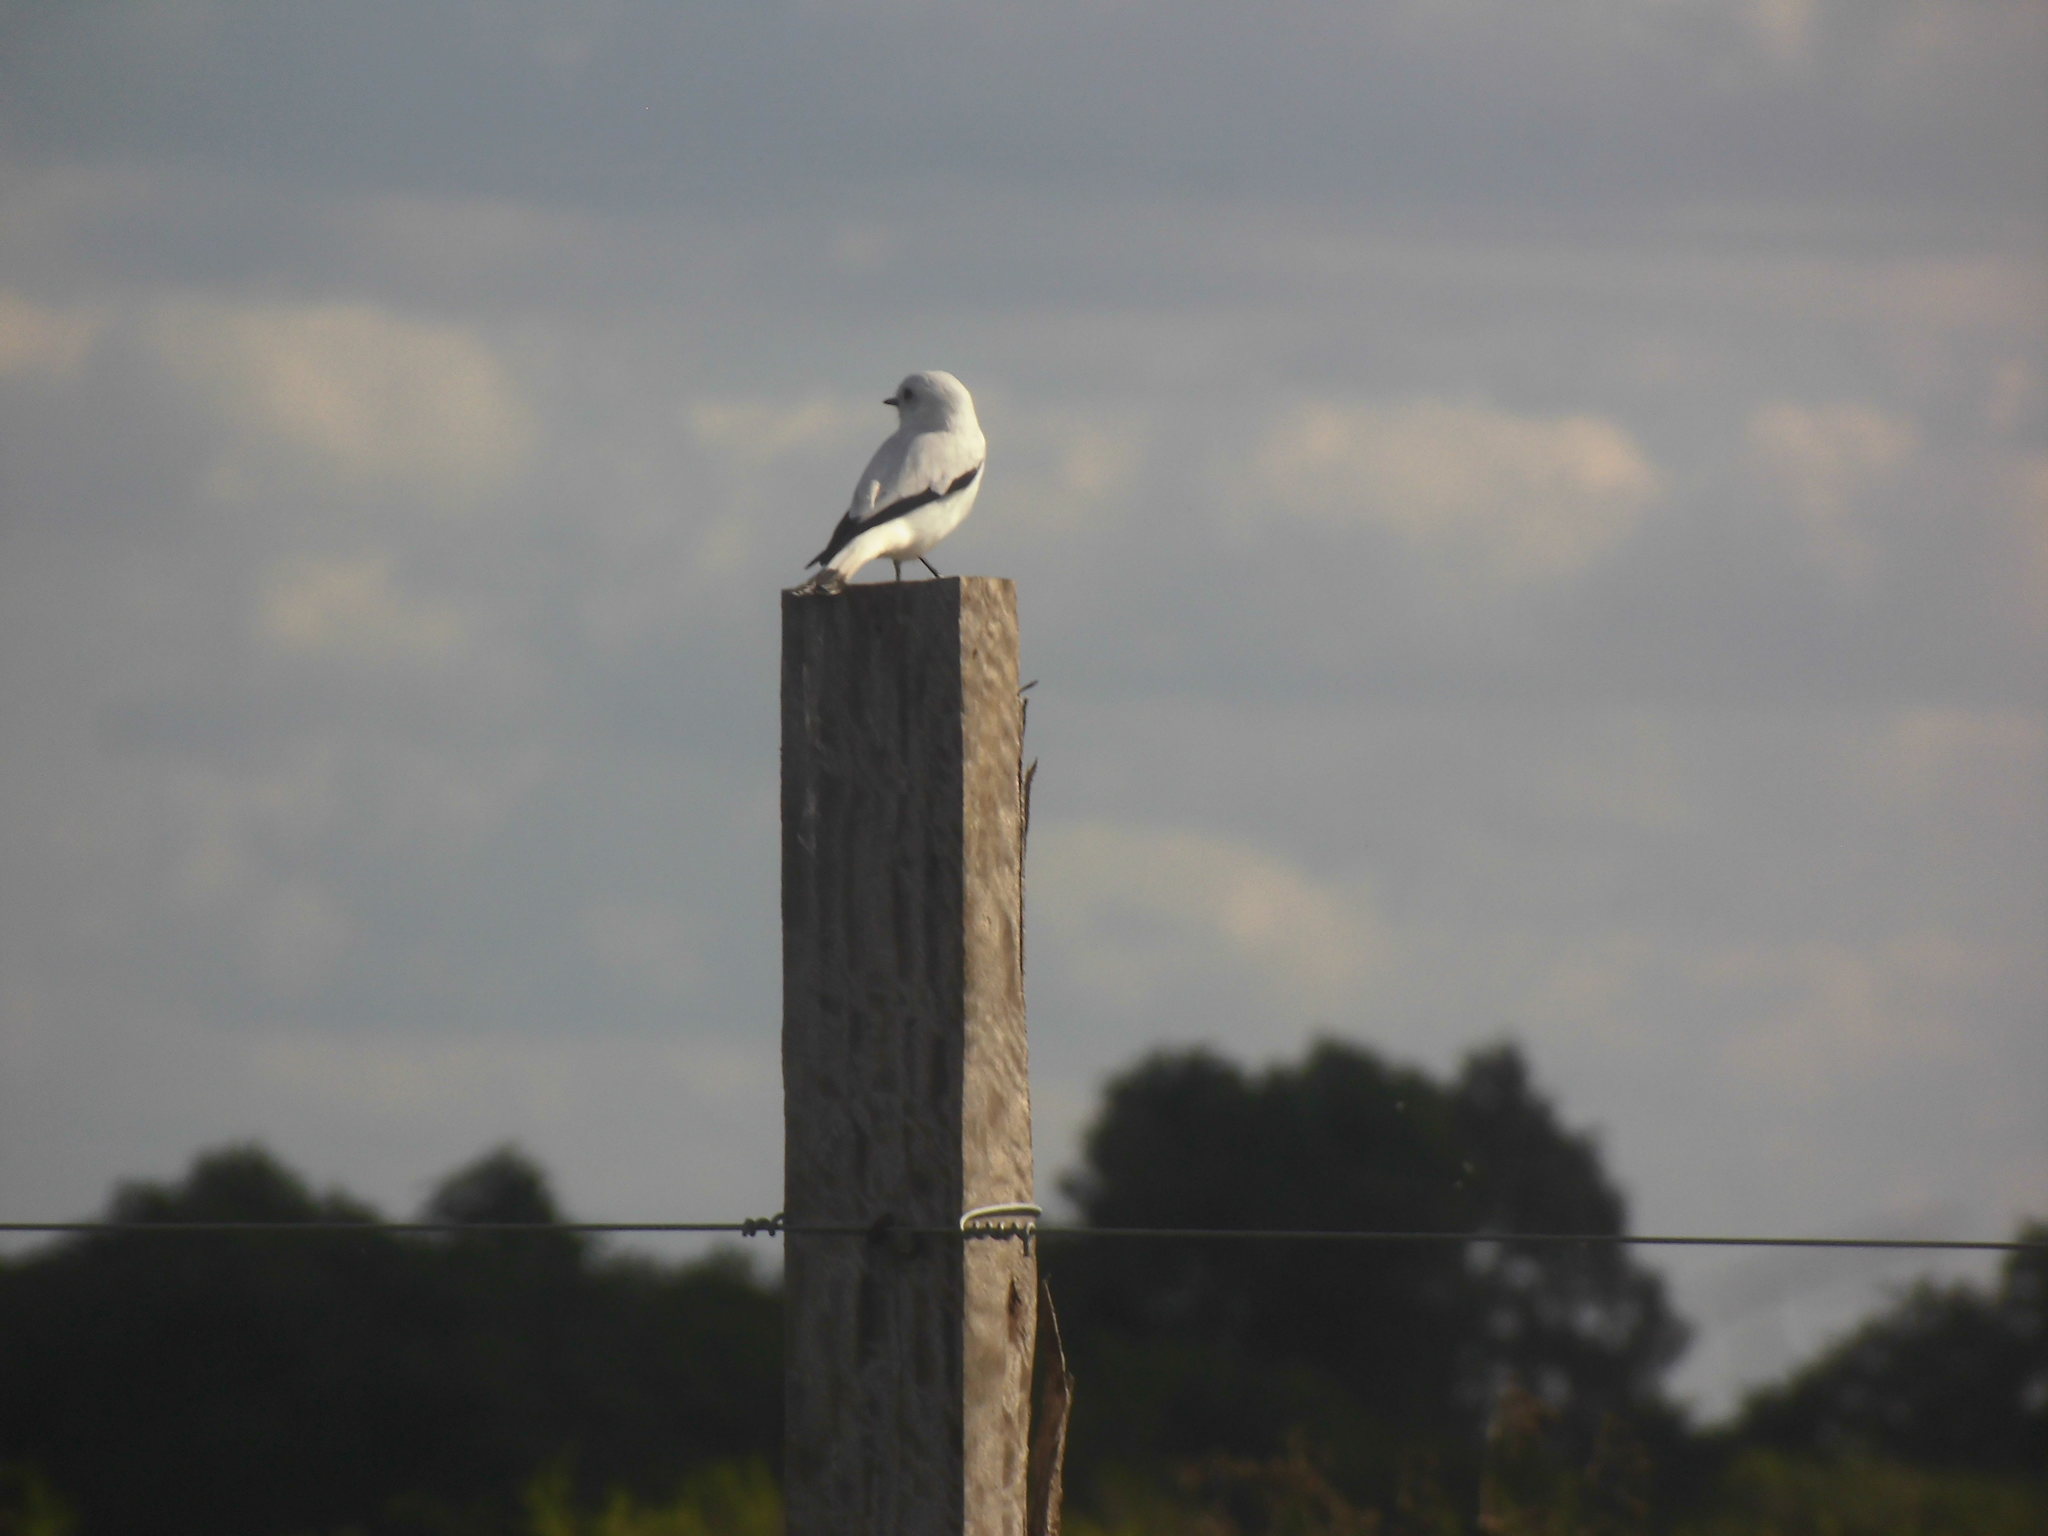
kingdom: Animalia
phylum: Chordata
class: Aves
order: Passeriformes
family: Tyrannidae
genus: Xolmis
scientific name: Xolmis irupero
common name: White monjita
